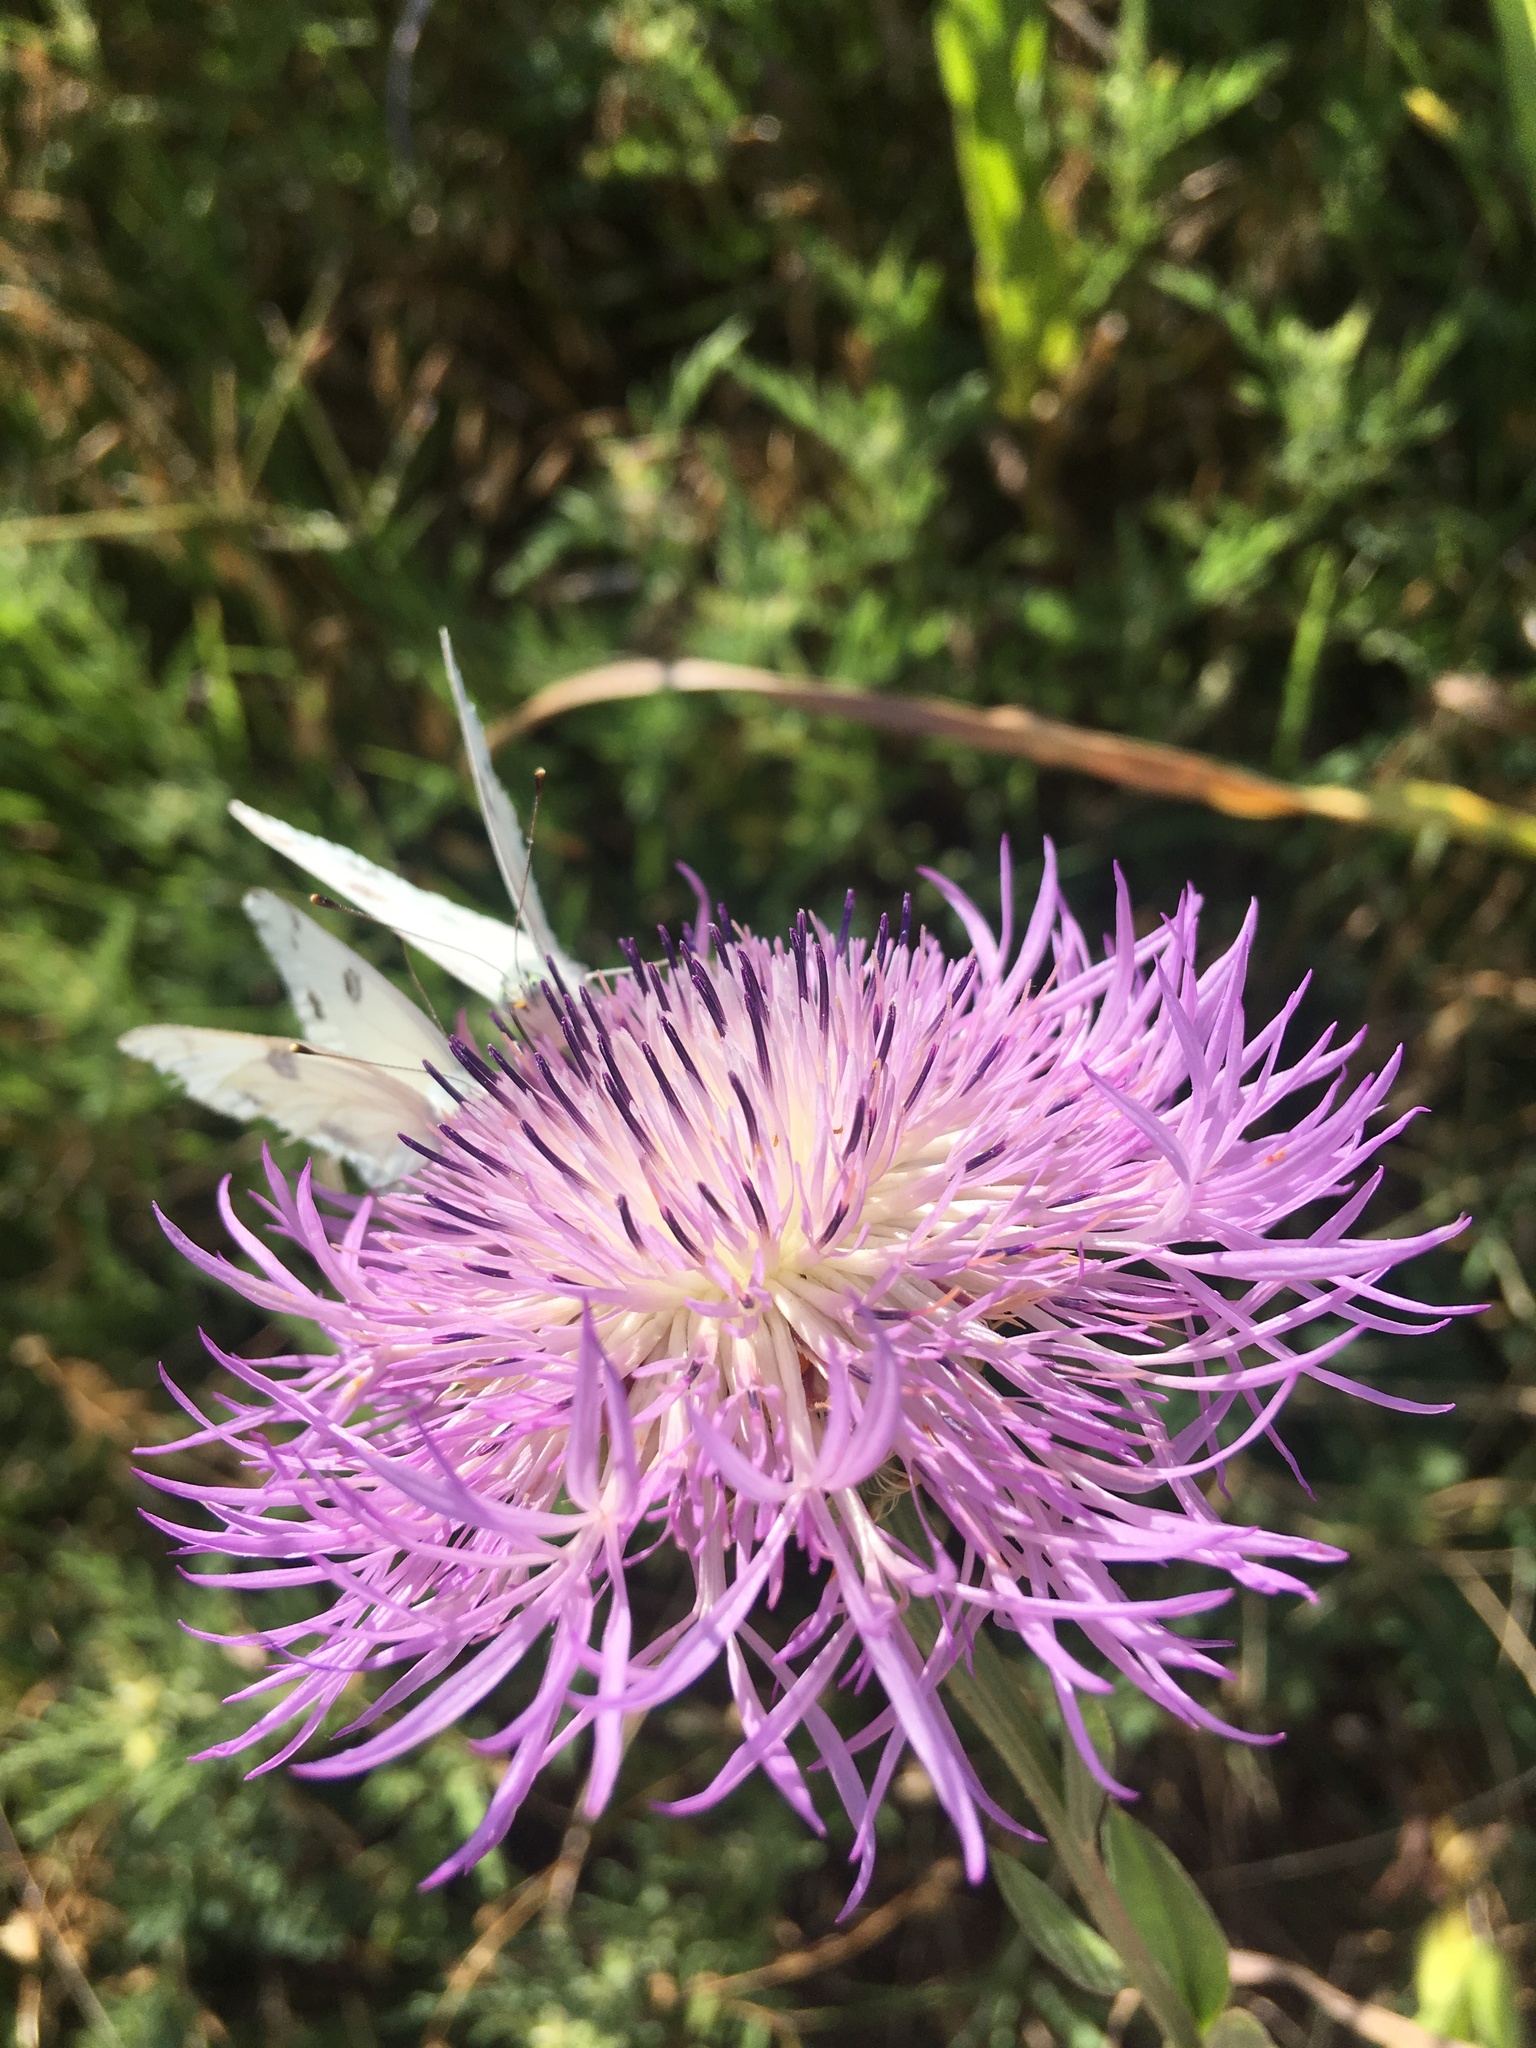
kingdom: Animalia
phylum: Arthropoda
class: Insecta
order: Lepidoptera
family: Pieridae
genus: Pontia
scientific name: Pontia protodice
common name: Checkered white
